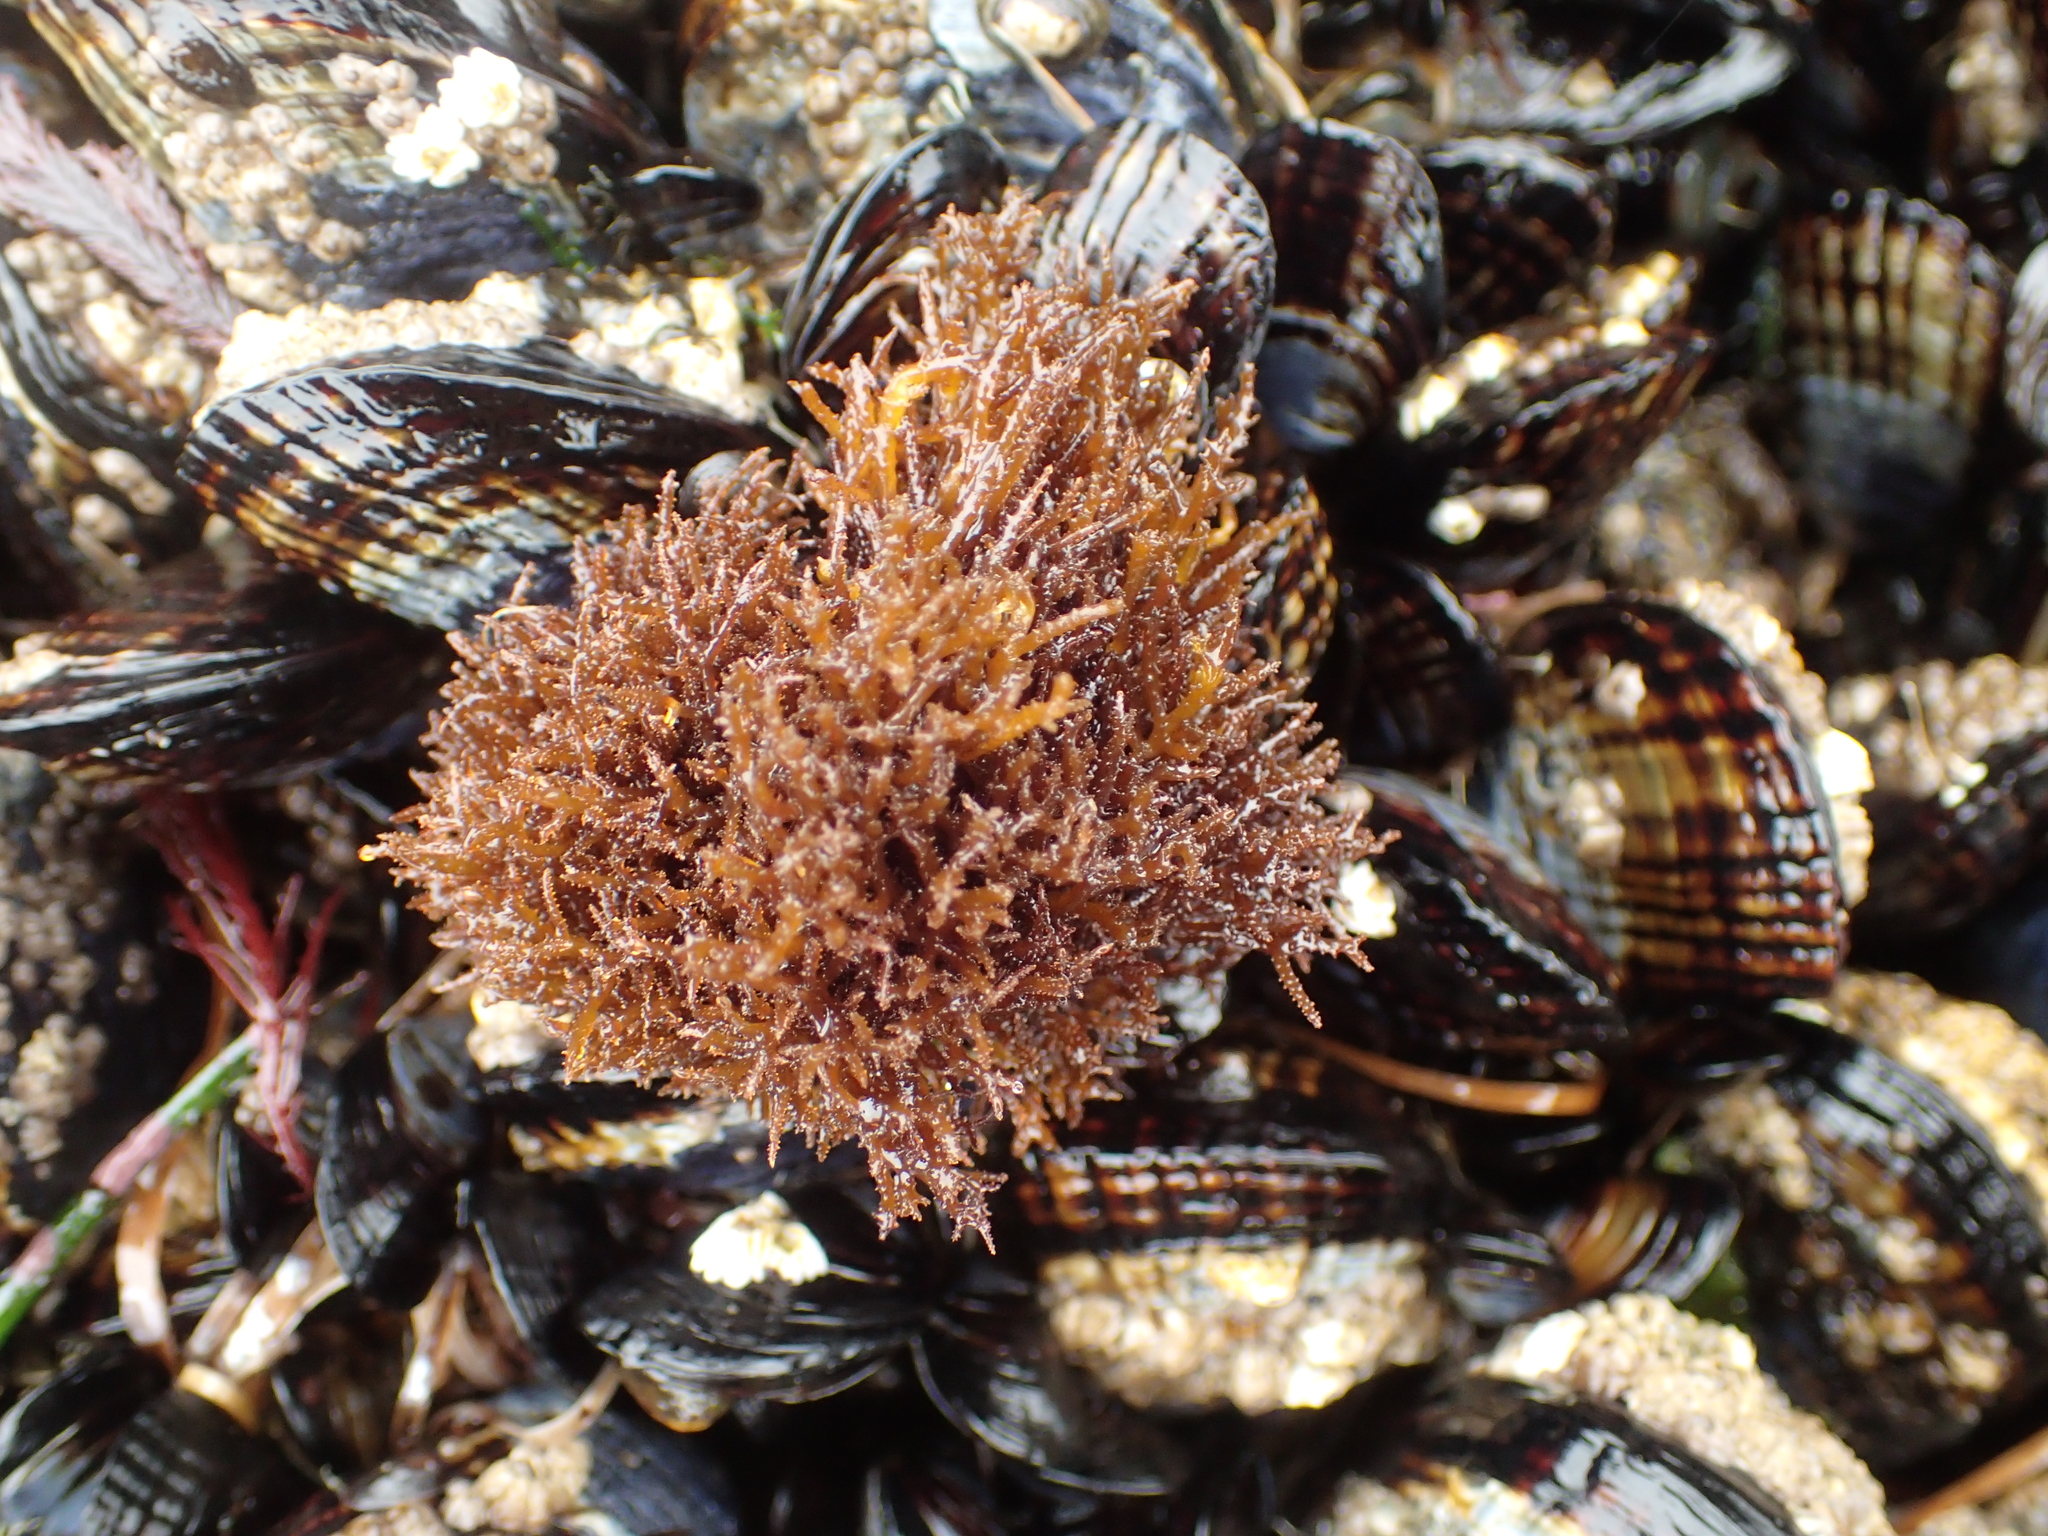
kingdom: Plantae
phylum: Rhodophyta
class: Florideophyceae
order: Gigartinales
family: Endocladiaceae
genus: Endocladia
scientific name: Endocladia muricata
